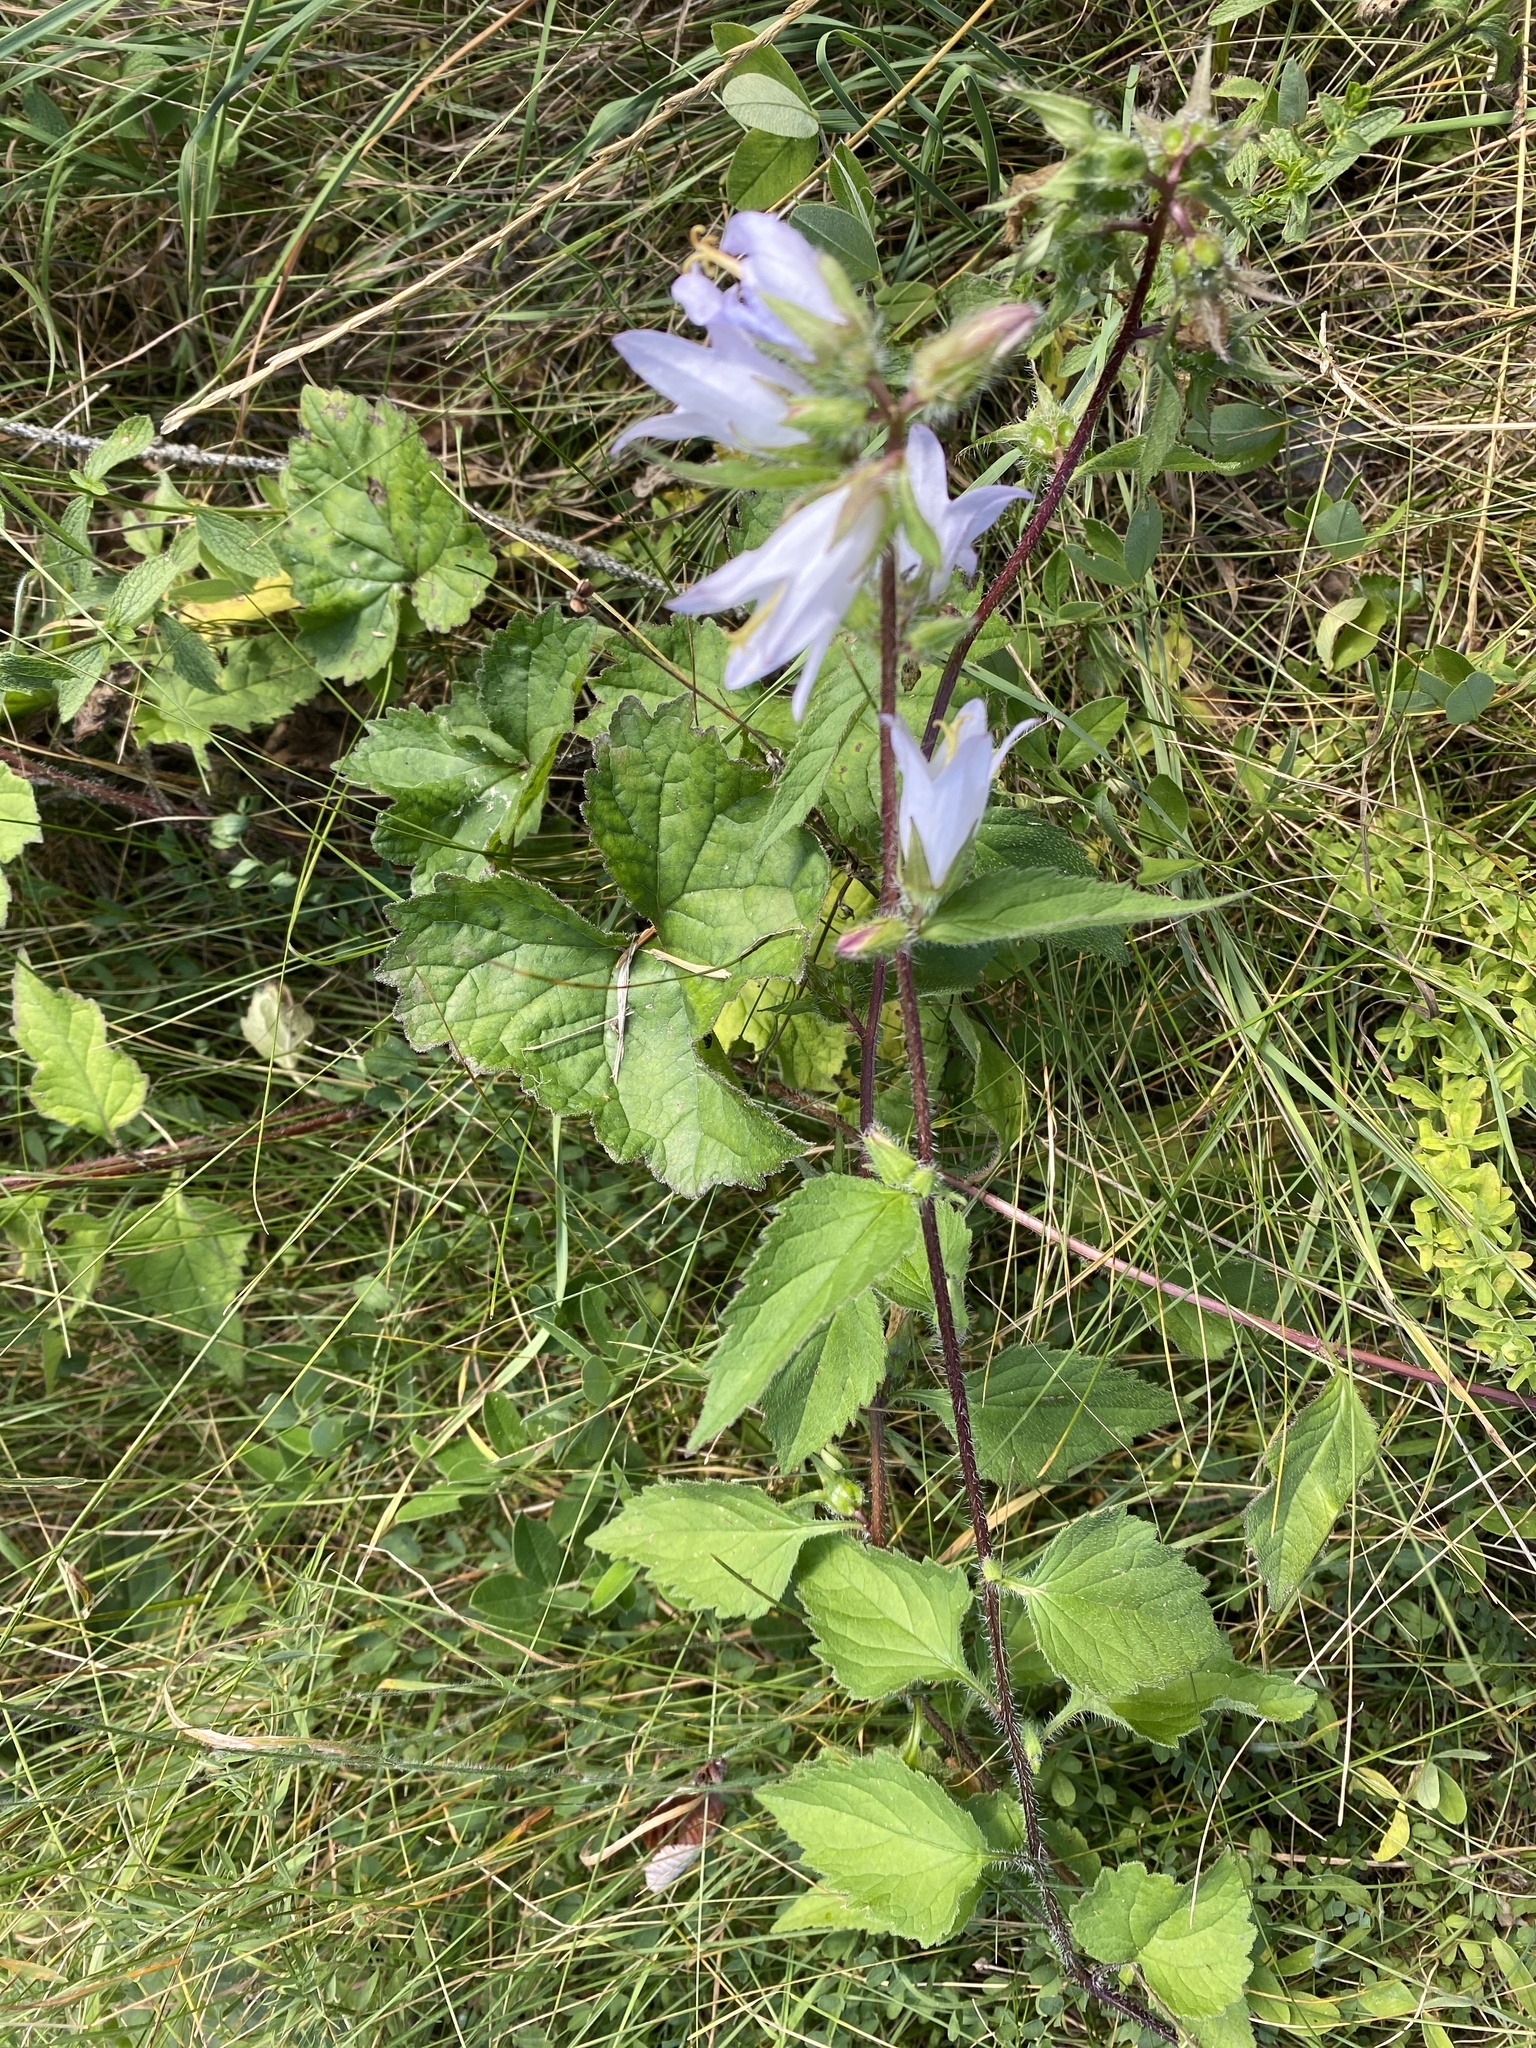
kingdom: Plantae
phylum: Tracheophyta
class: Magnoliopsida
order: Asterales
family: Campanulaceae
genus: Campanula
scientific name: Campanula trachelium
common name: Nettle-leaved bellflower
